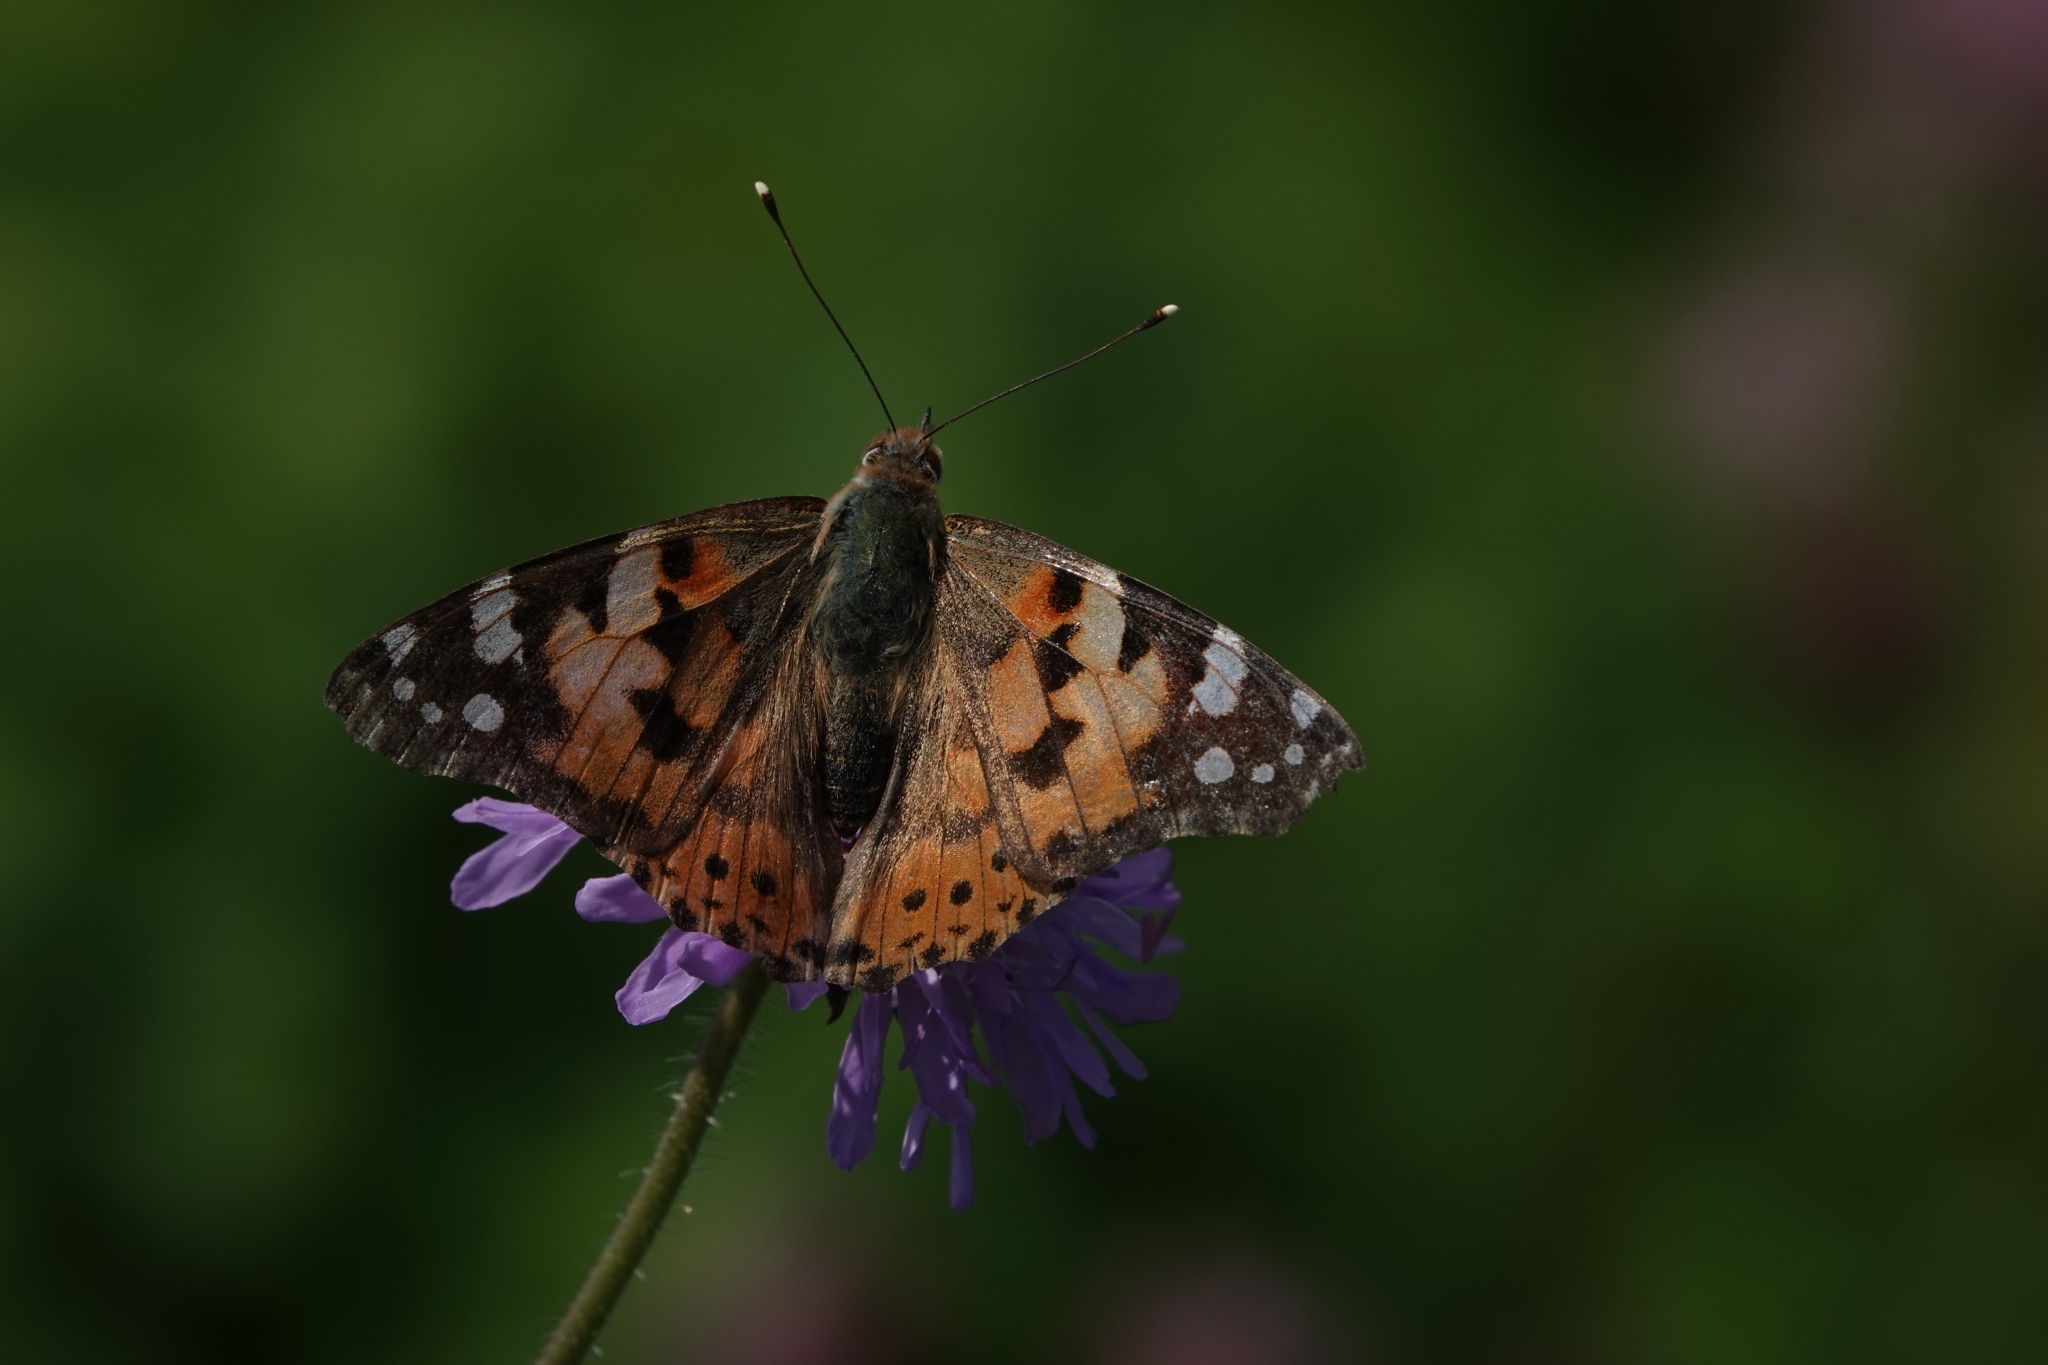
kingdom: Animalia
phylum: Arthropoda
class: Insecta
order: Lepidoptera
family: Nymphalidae
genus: Vanessa
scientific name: Vanessa cardui
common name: Painted lady
